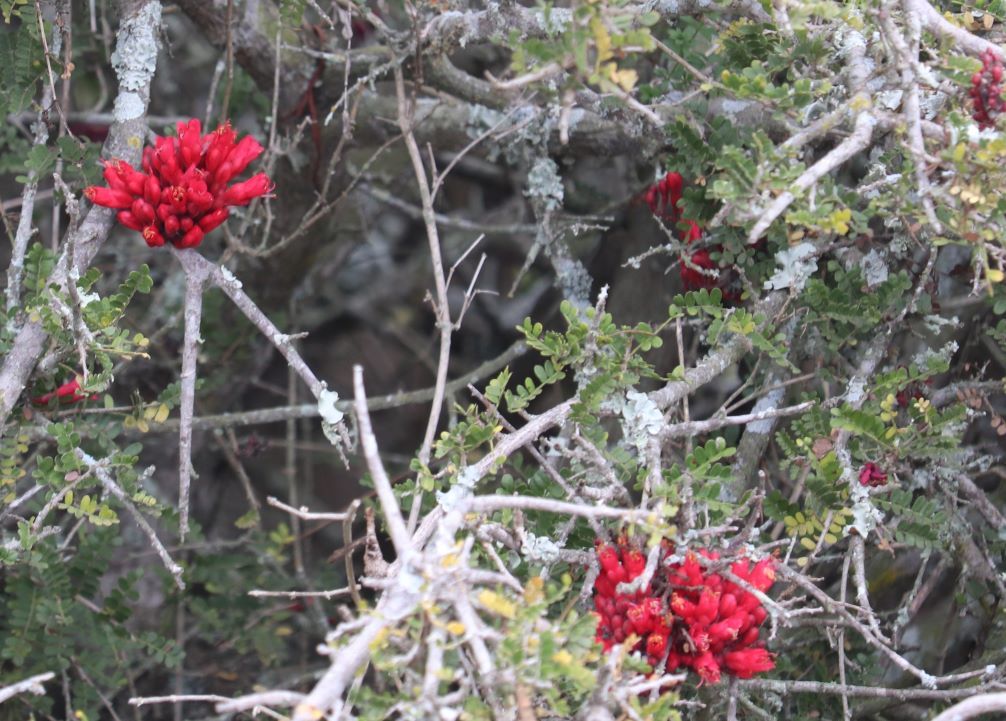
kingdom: Plantae
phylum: Tracheophyta
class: Magnoliopsida
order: Fabales
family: Fabaceae
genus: Schotia
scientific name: Schotia afra
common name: Hottentot's bean
